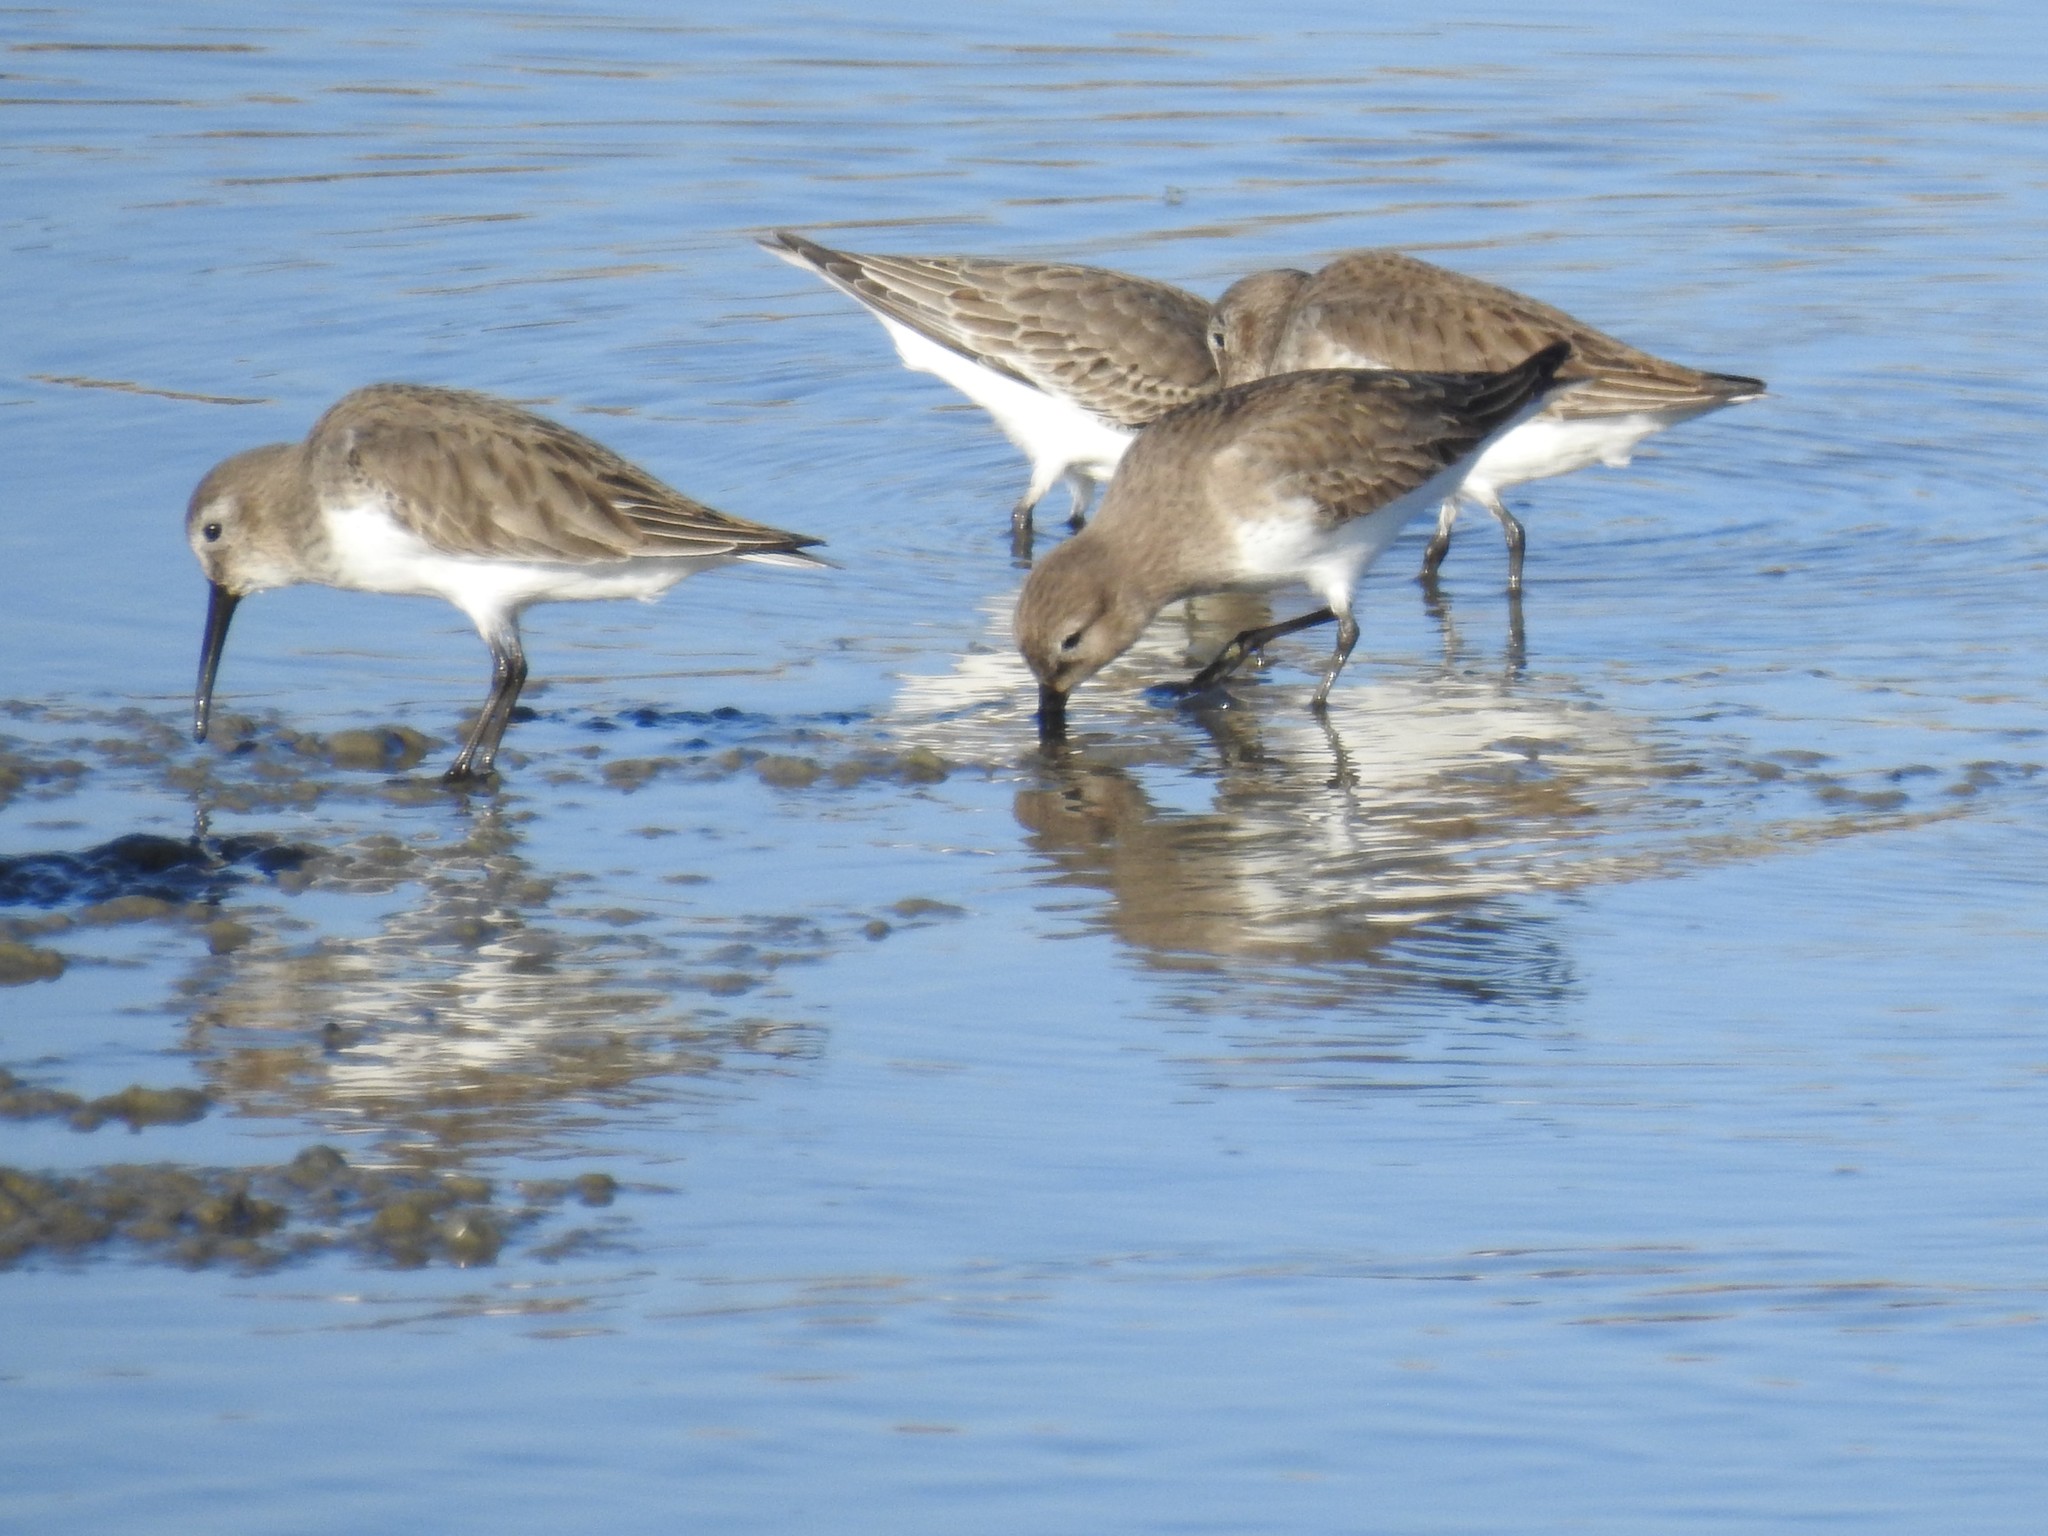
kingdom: Animalia
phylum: Chordata
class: Aves
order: Charadriiformes
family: Scolopacidae
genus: Calidris
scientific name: Calidris alpina
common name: Dunlin
